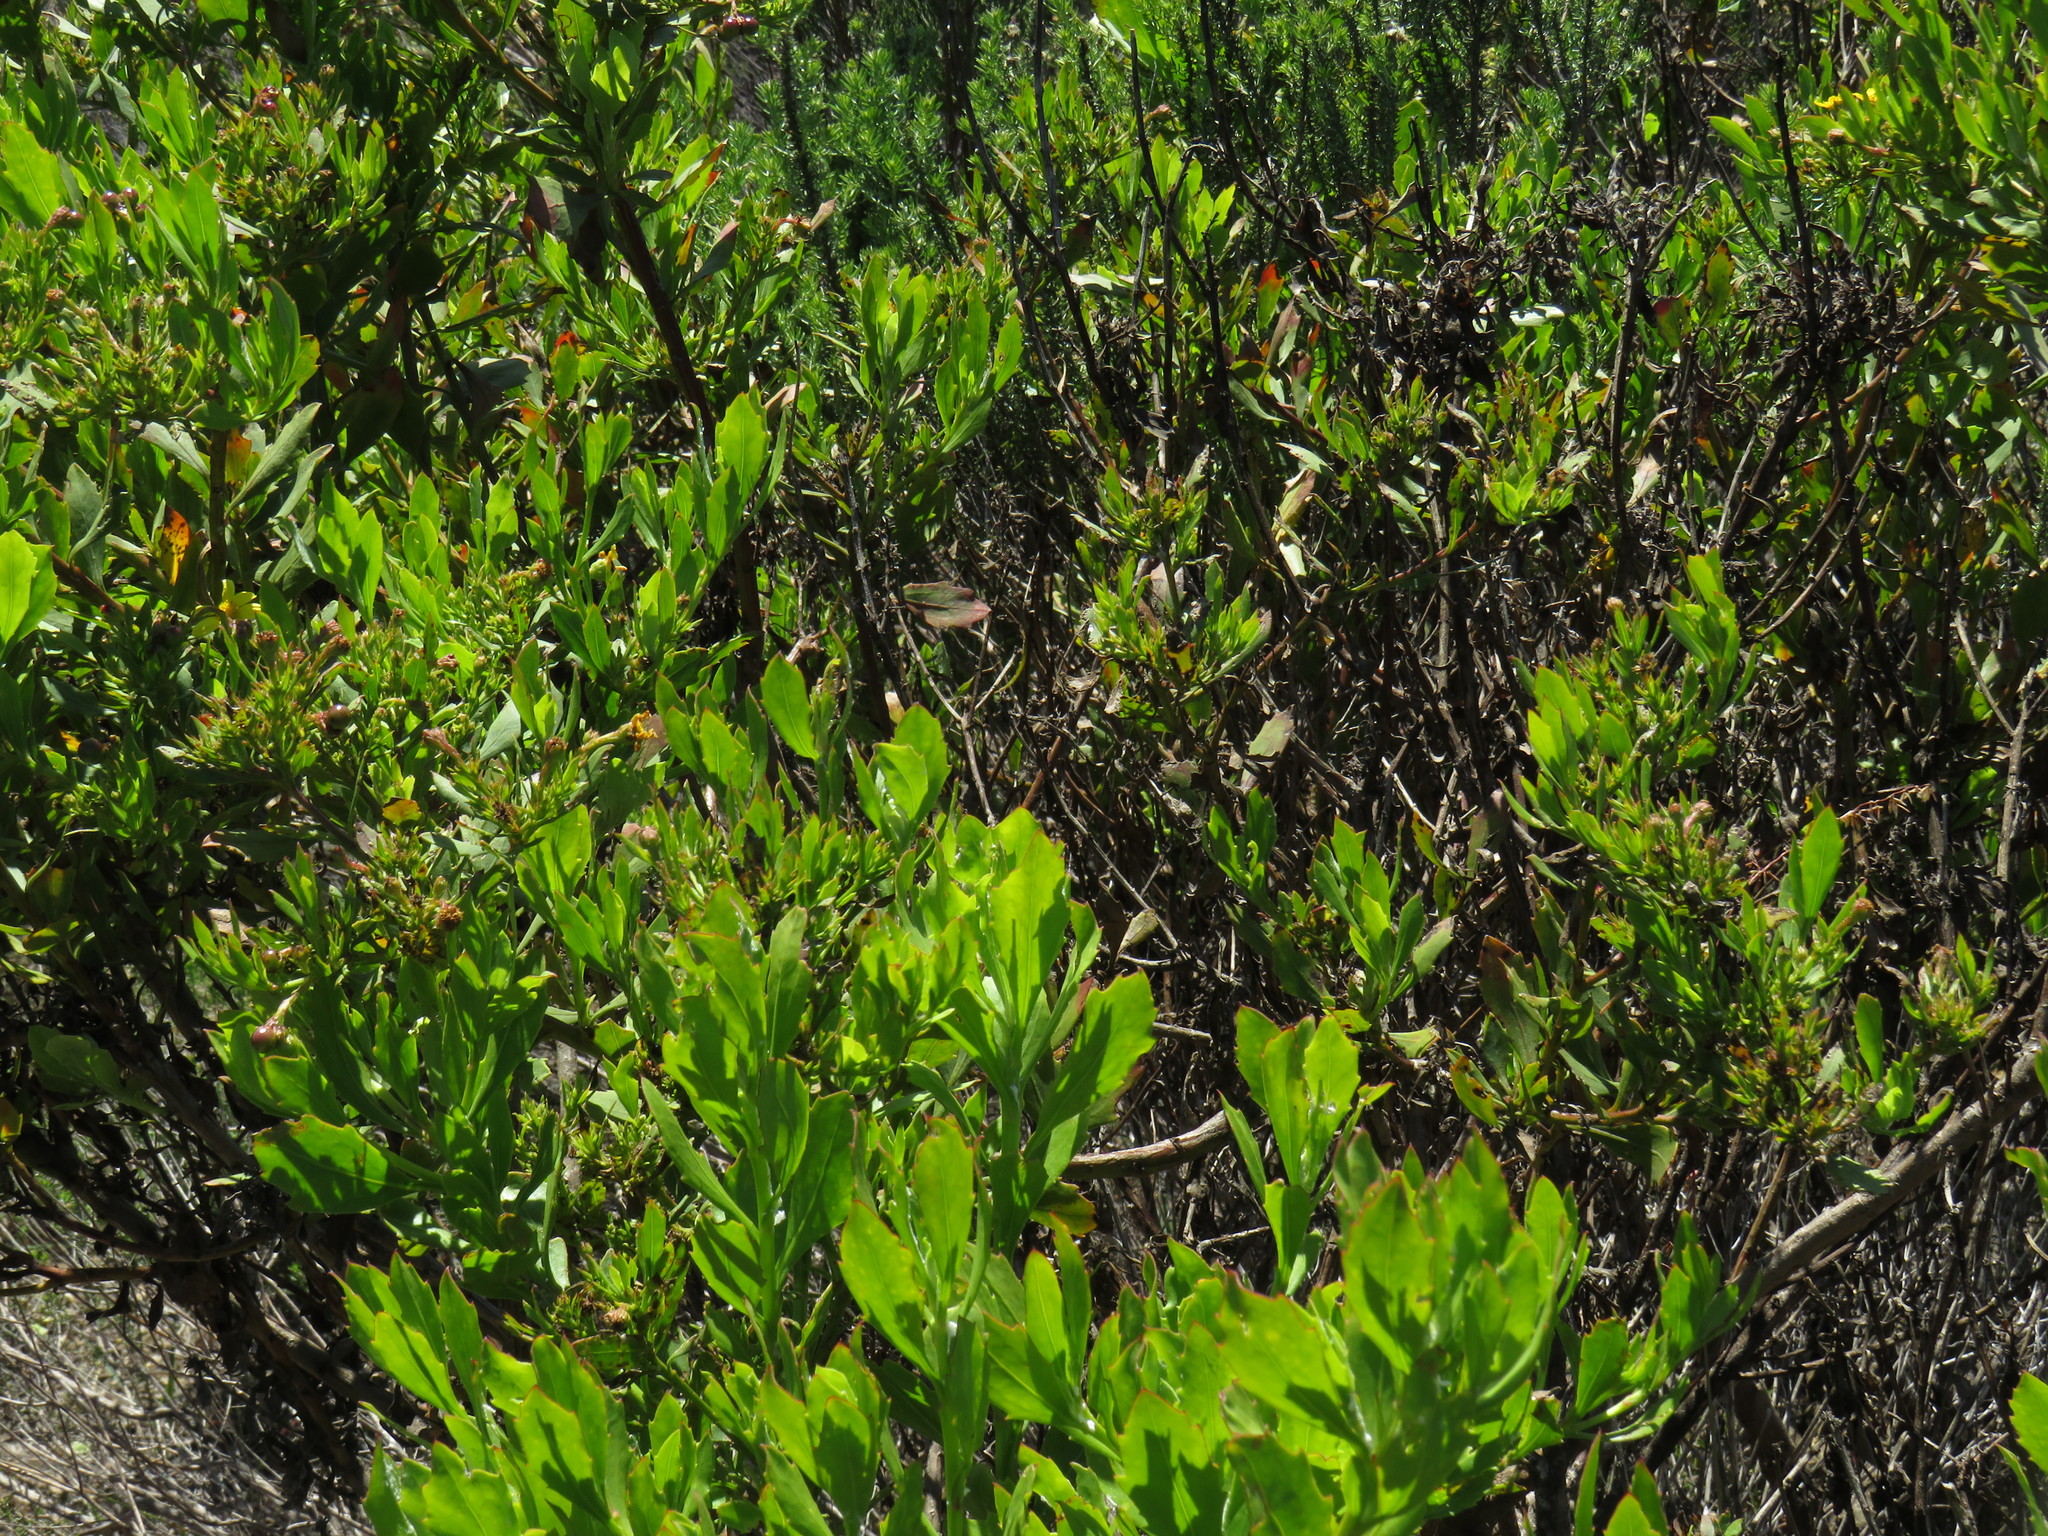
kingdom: Plantae
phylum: Tracheophyta
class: Magnoliopsida
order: Asterales
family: Asteraceae
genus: Osteospermum
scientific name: Osteospermum moniliferum
